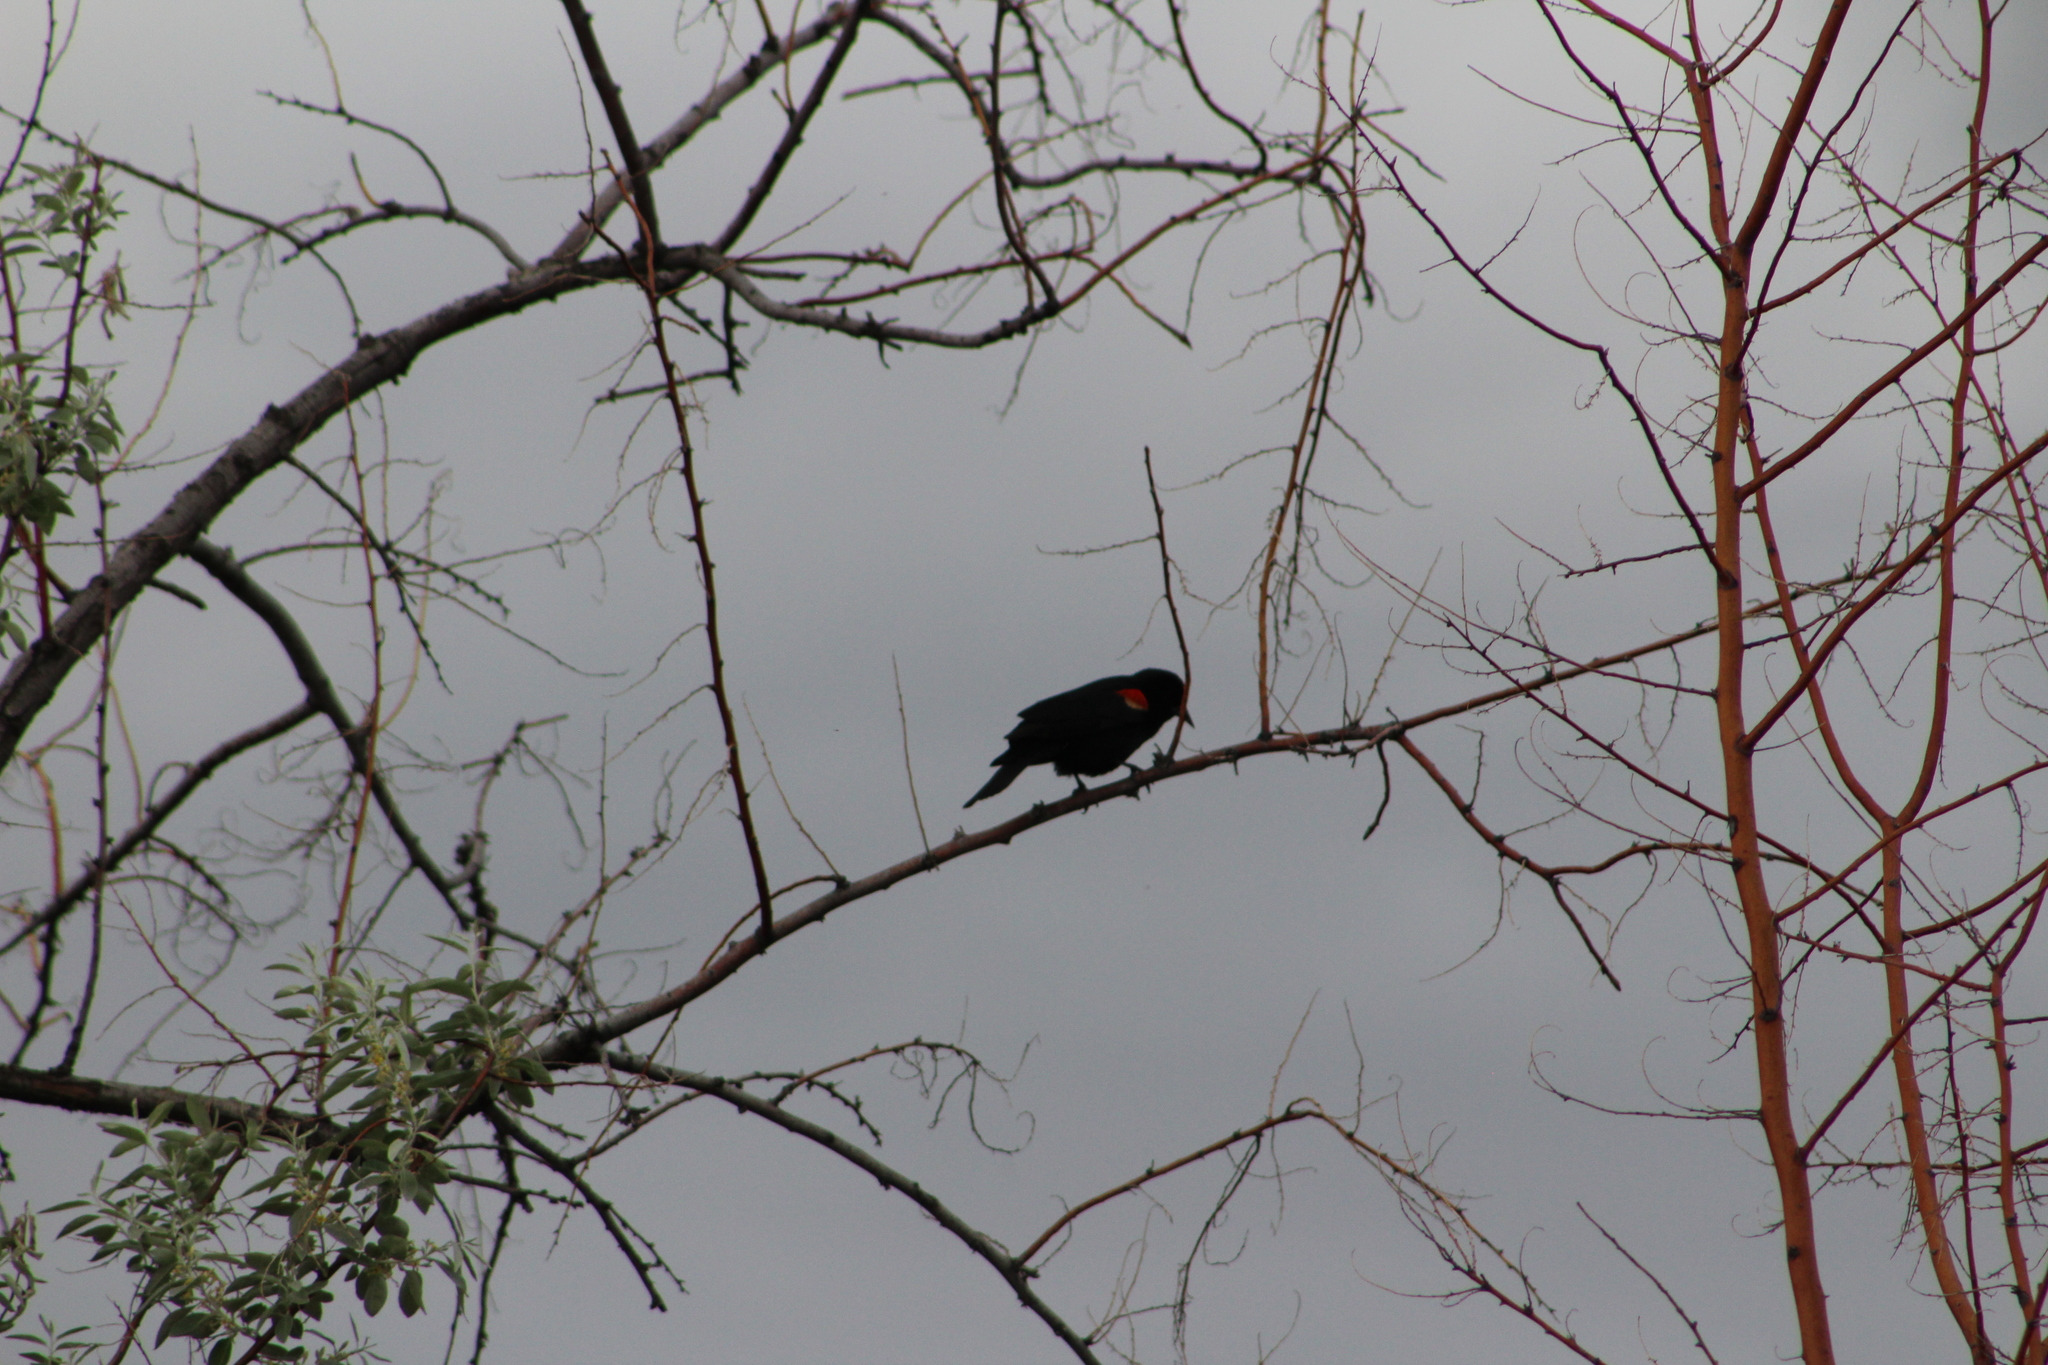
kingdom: Animalia
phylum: Chordata
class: Aves
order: Passeriformes
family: Icteridae
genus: Agelaius
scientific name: Agelaius phoeniceus
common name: Red-winged blackbird
